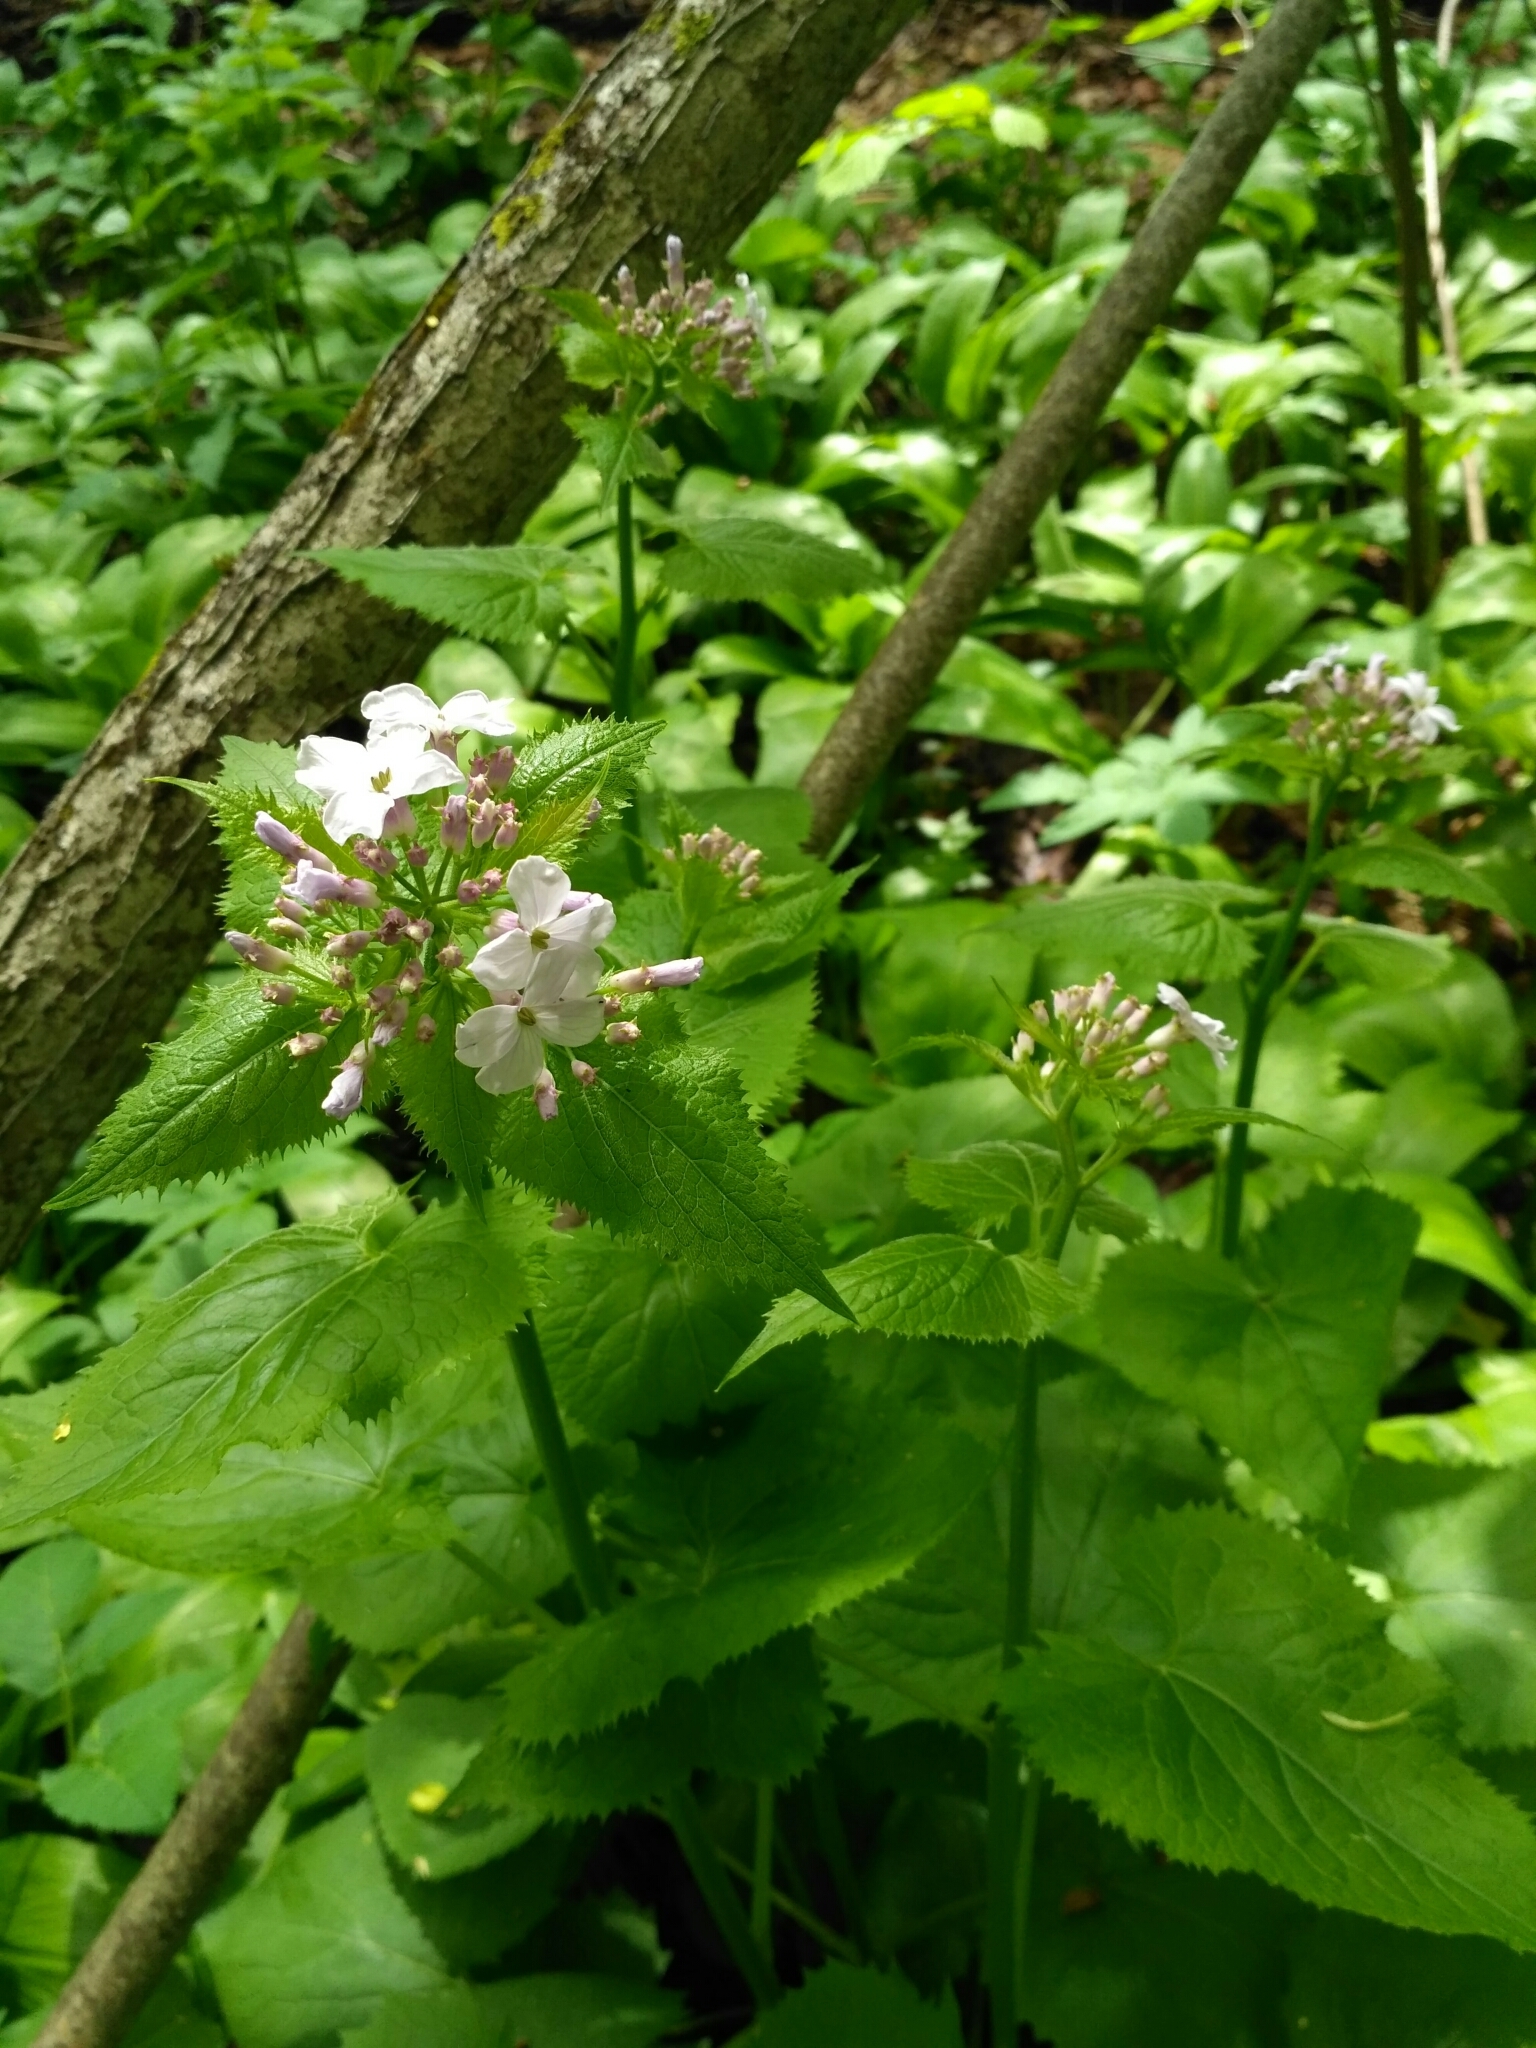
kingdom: Plantae
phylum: Tracheophyta
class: Magnoliopsida
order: Brassicales
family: Brassicaceae
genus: Lunaria
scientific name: Lunaria rediviva
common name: Perennial honesty
